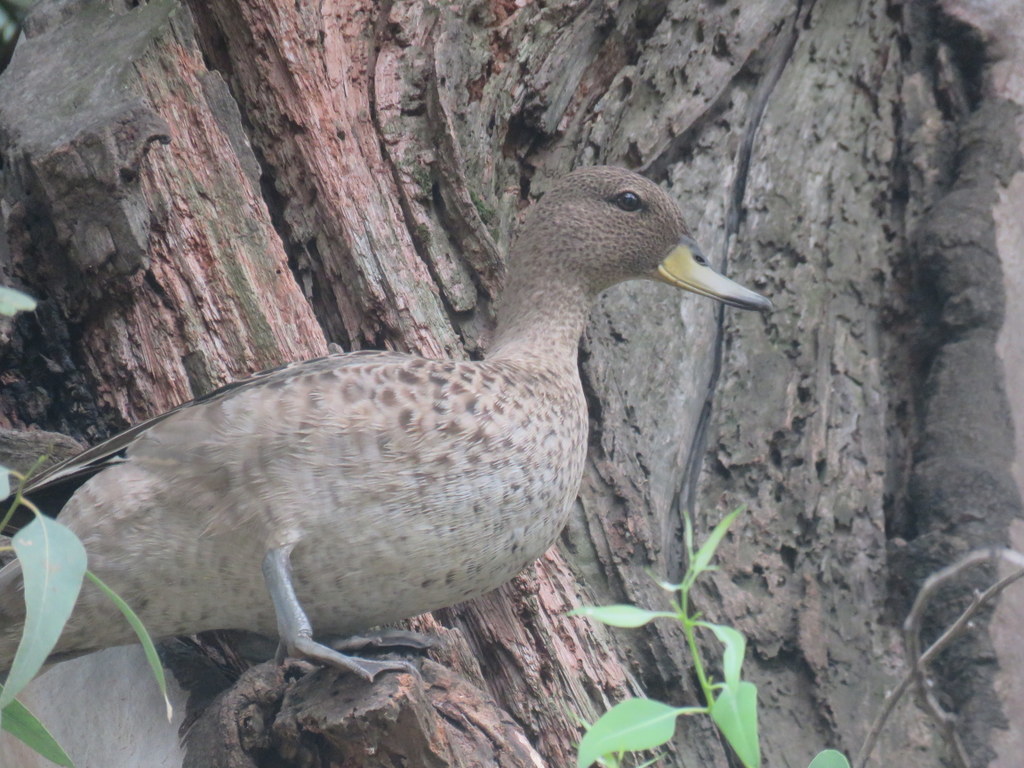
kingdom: Animalia
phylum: Chordata
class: Aves
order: Anseriformes
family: Anatidae
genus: Anas
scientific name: Anas flavirostris
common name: Yellow-billed teal
